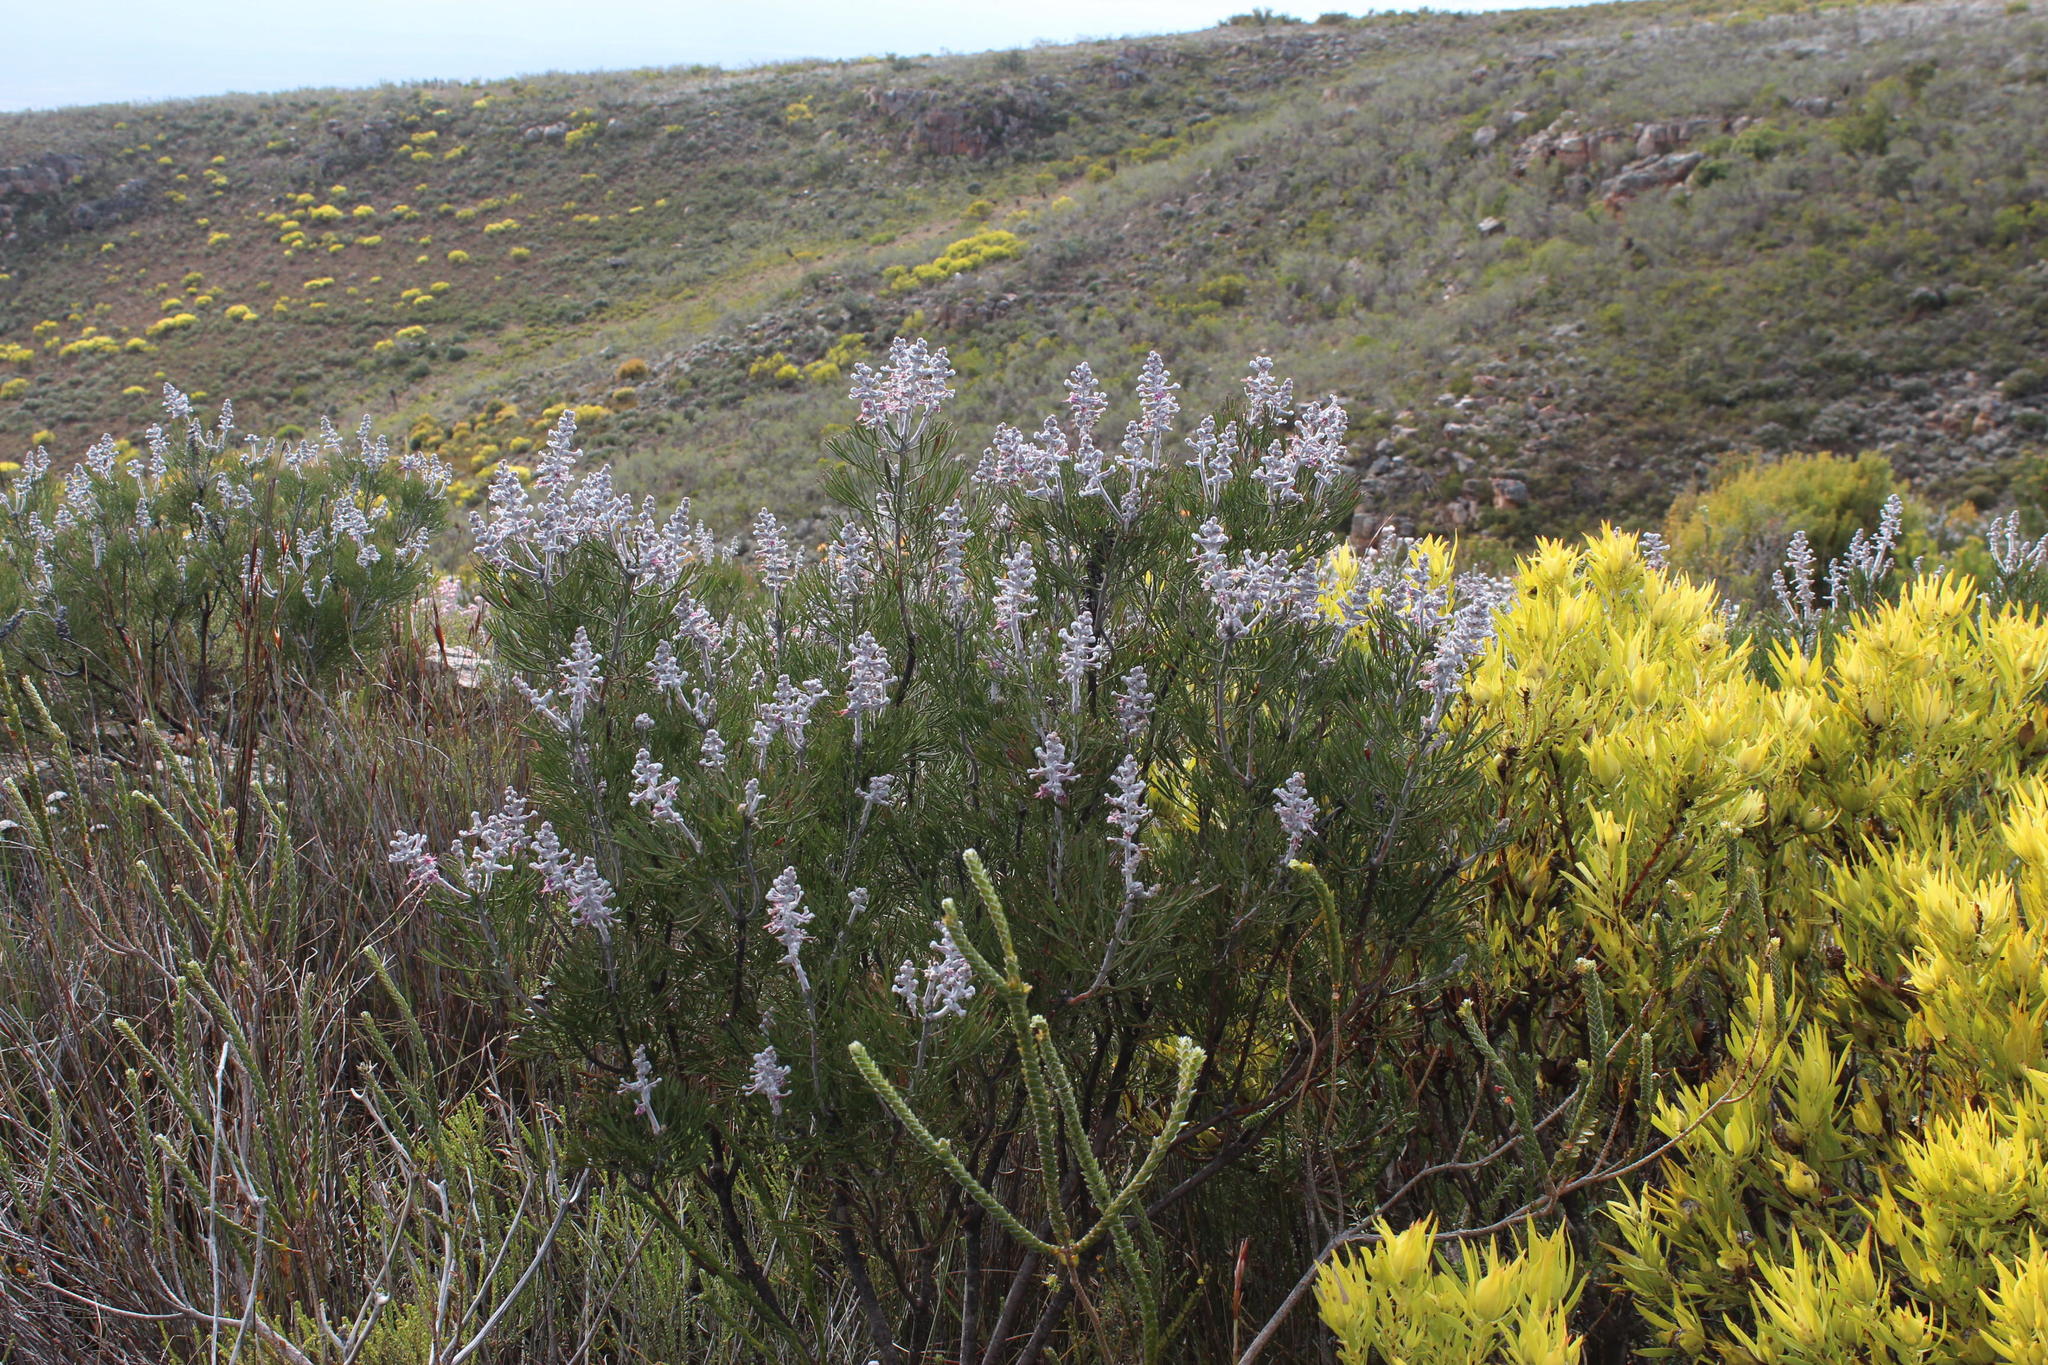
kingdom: Plantae
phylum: Tracheophyta
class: Magnoliopsida
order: Proteales
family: Proteaceae
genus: Paranomus
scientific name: Paranomus dispersus
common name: Long-head sceptre
